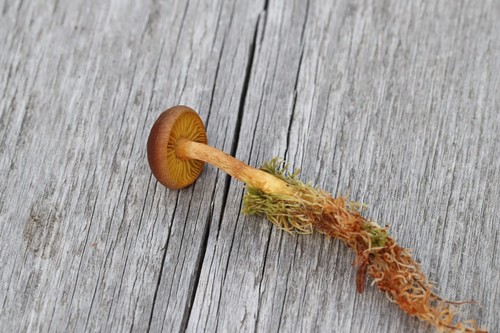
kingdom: Fungi
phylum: Basidiomycota
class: Agaricomycetes
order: Agaricales
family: Cortinariaceae
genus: Cortinarius
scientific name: Cortinarius chrysolitus
